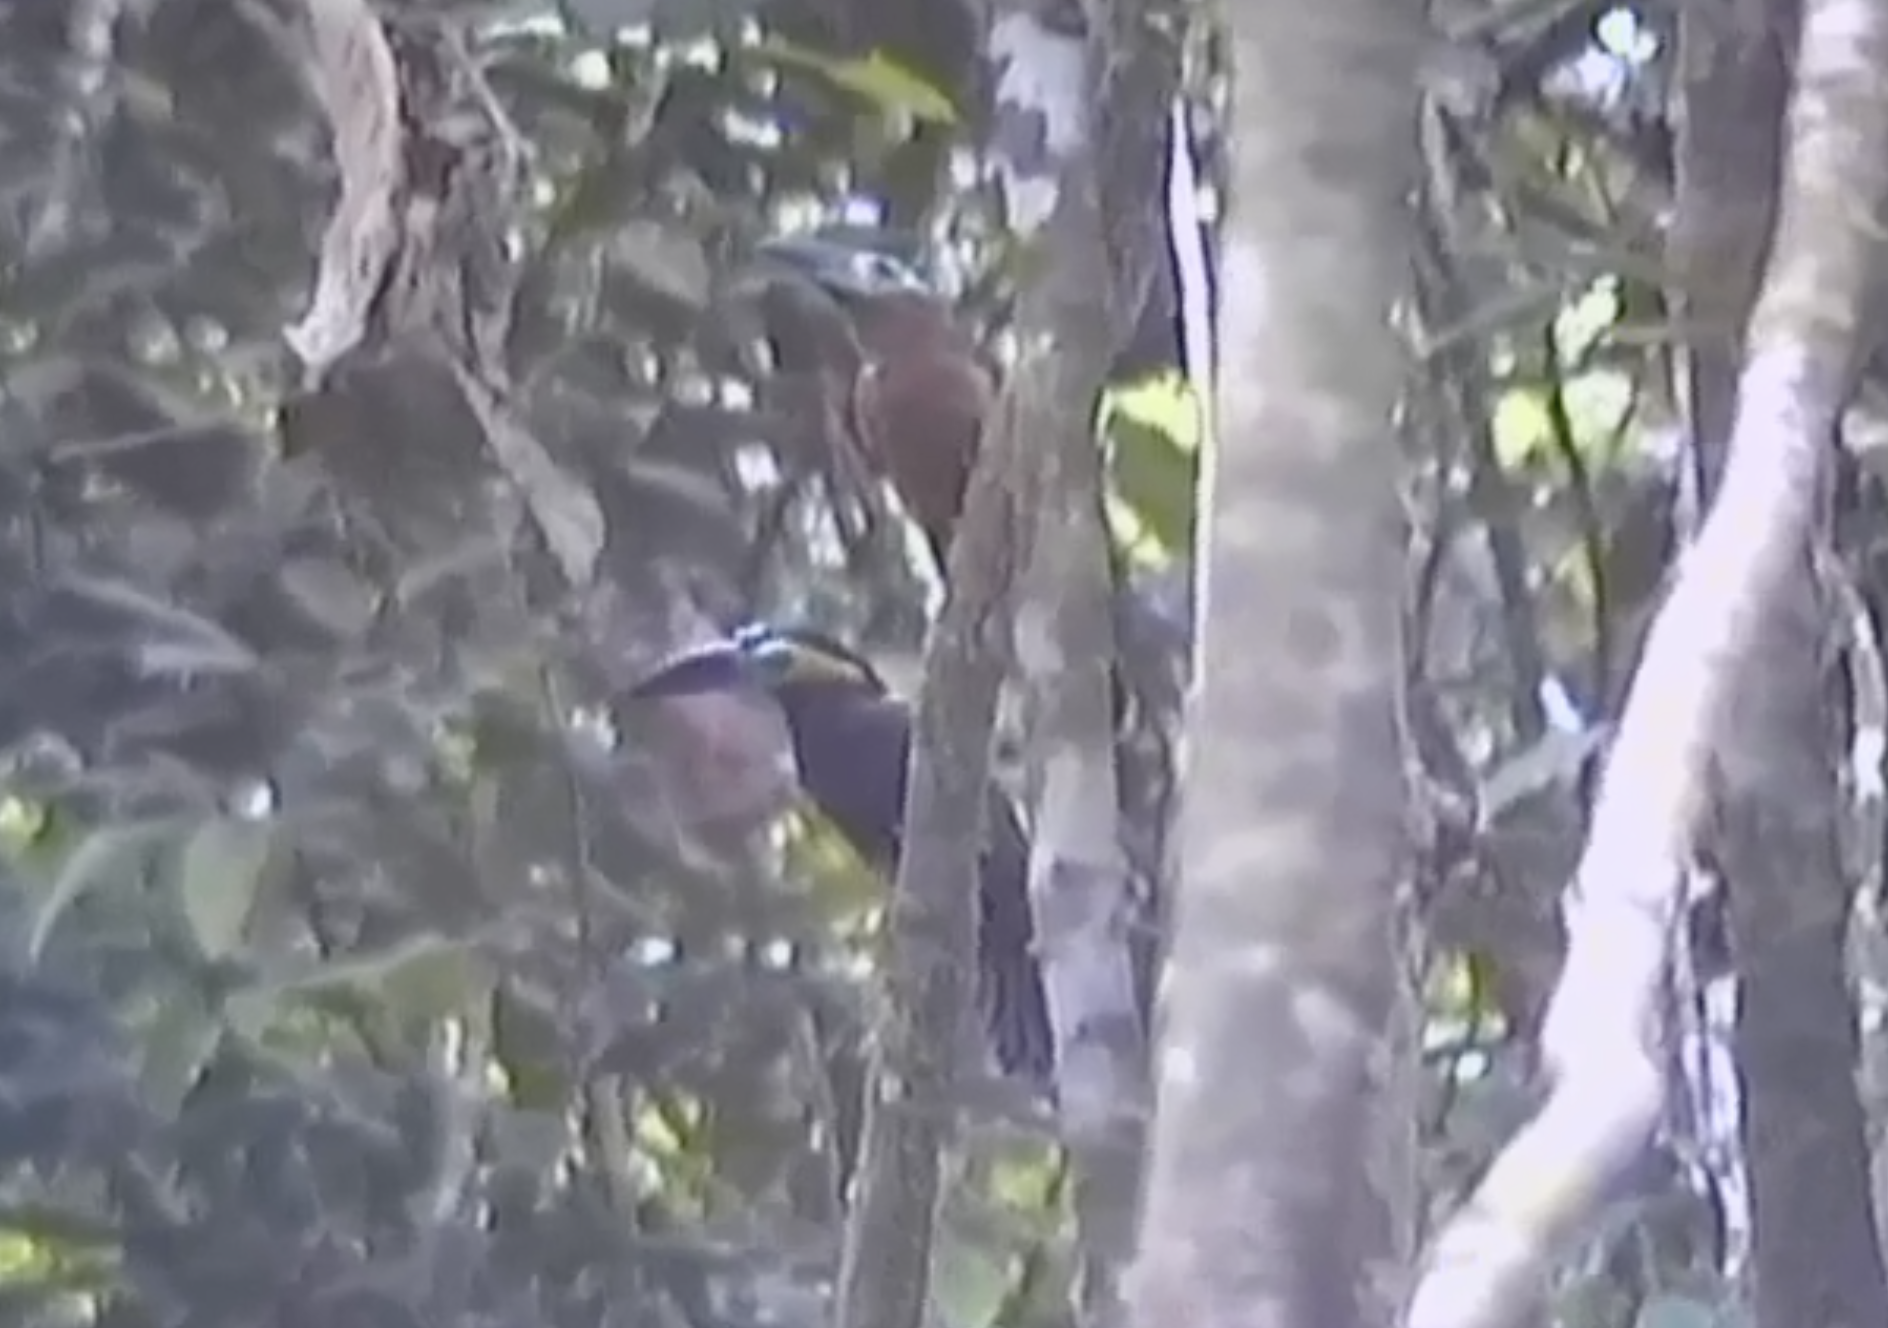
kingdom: Animalia
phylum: Chordata
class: Aves
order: Piciformes
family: Ramphastidae
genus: Selenidera
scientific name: Selenidera reinwardtii
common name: Golden-collared toucanet
